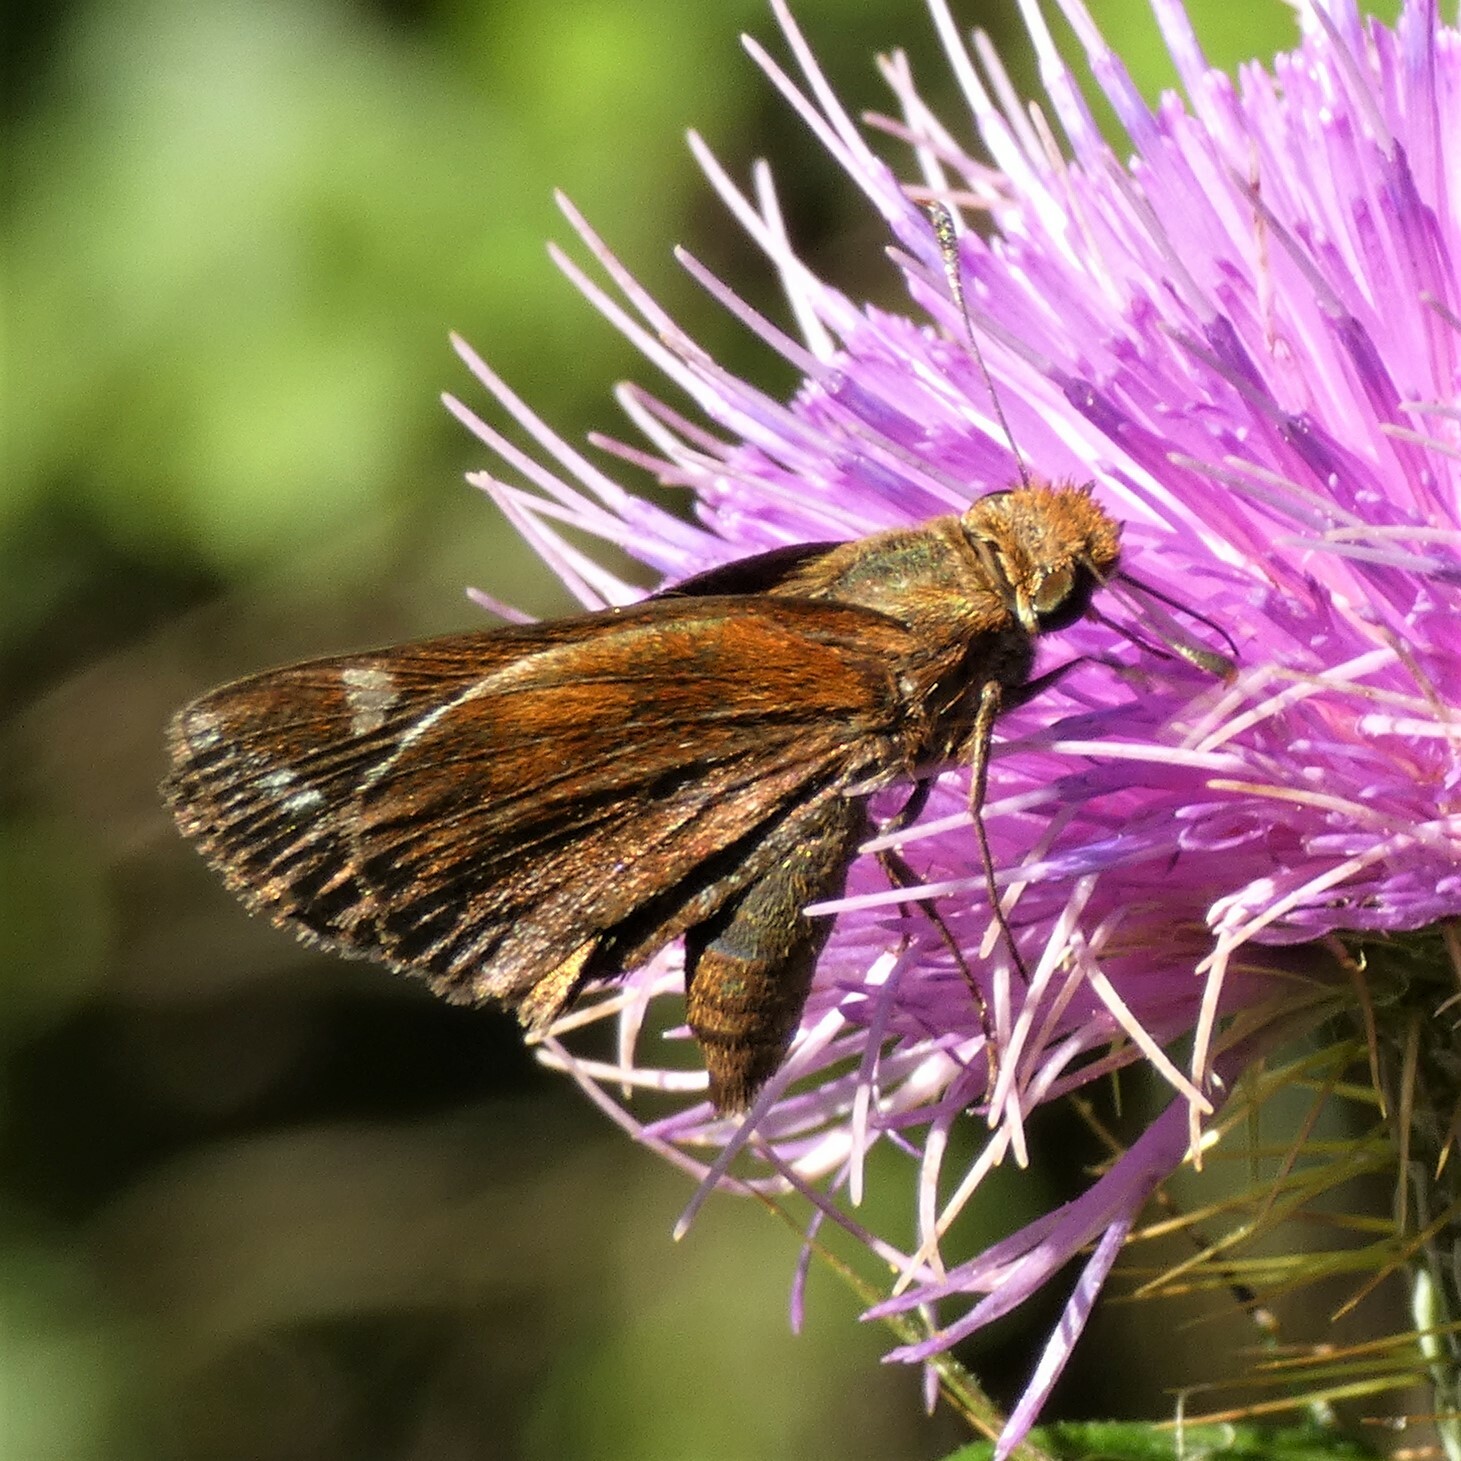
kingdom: Animalia
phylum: Arthropoda
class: Insecta
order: Lepidoptera
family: Hesperiidae
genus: Lon
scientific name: Lon zabulon
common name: Zabulon skipper
